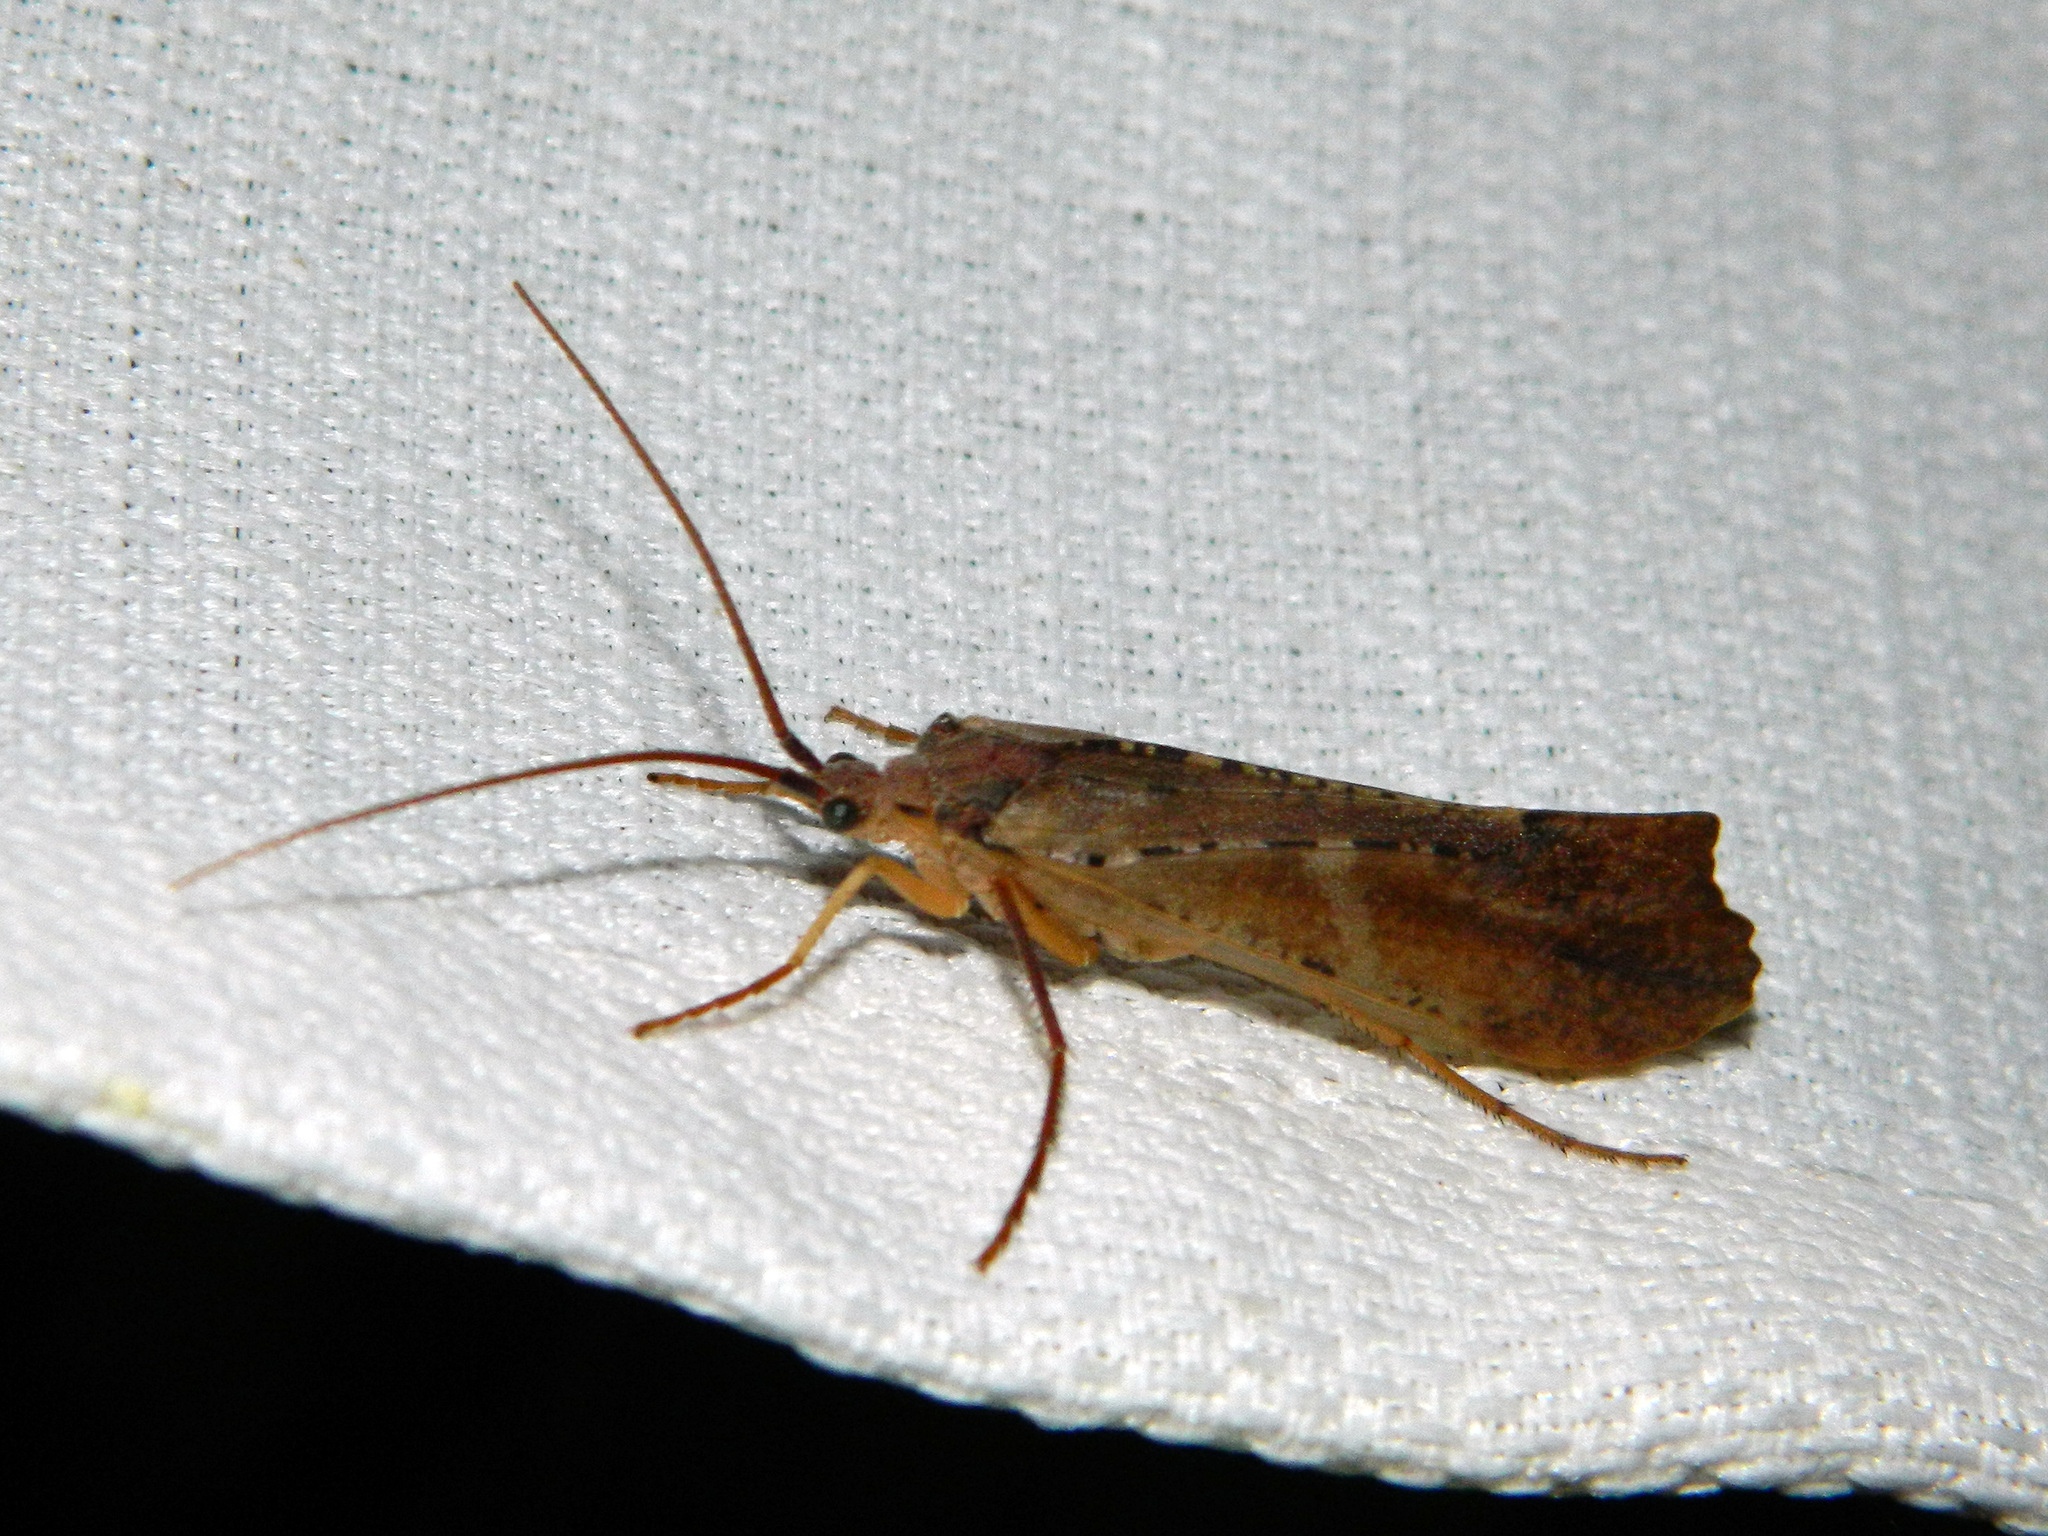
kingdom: Animalia
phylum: Arthropoda
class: Insecta
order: Trichoptera
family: Limnephilidae
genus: Nemotaulius
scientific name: Nemotaulius hostilis
